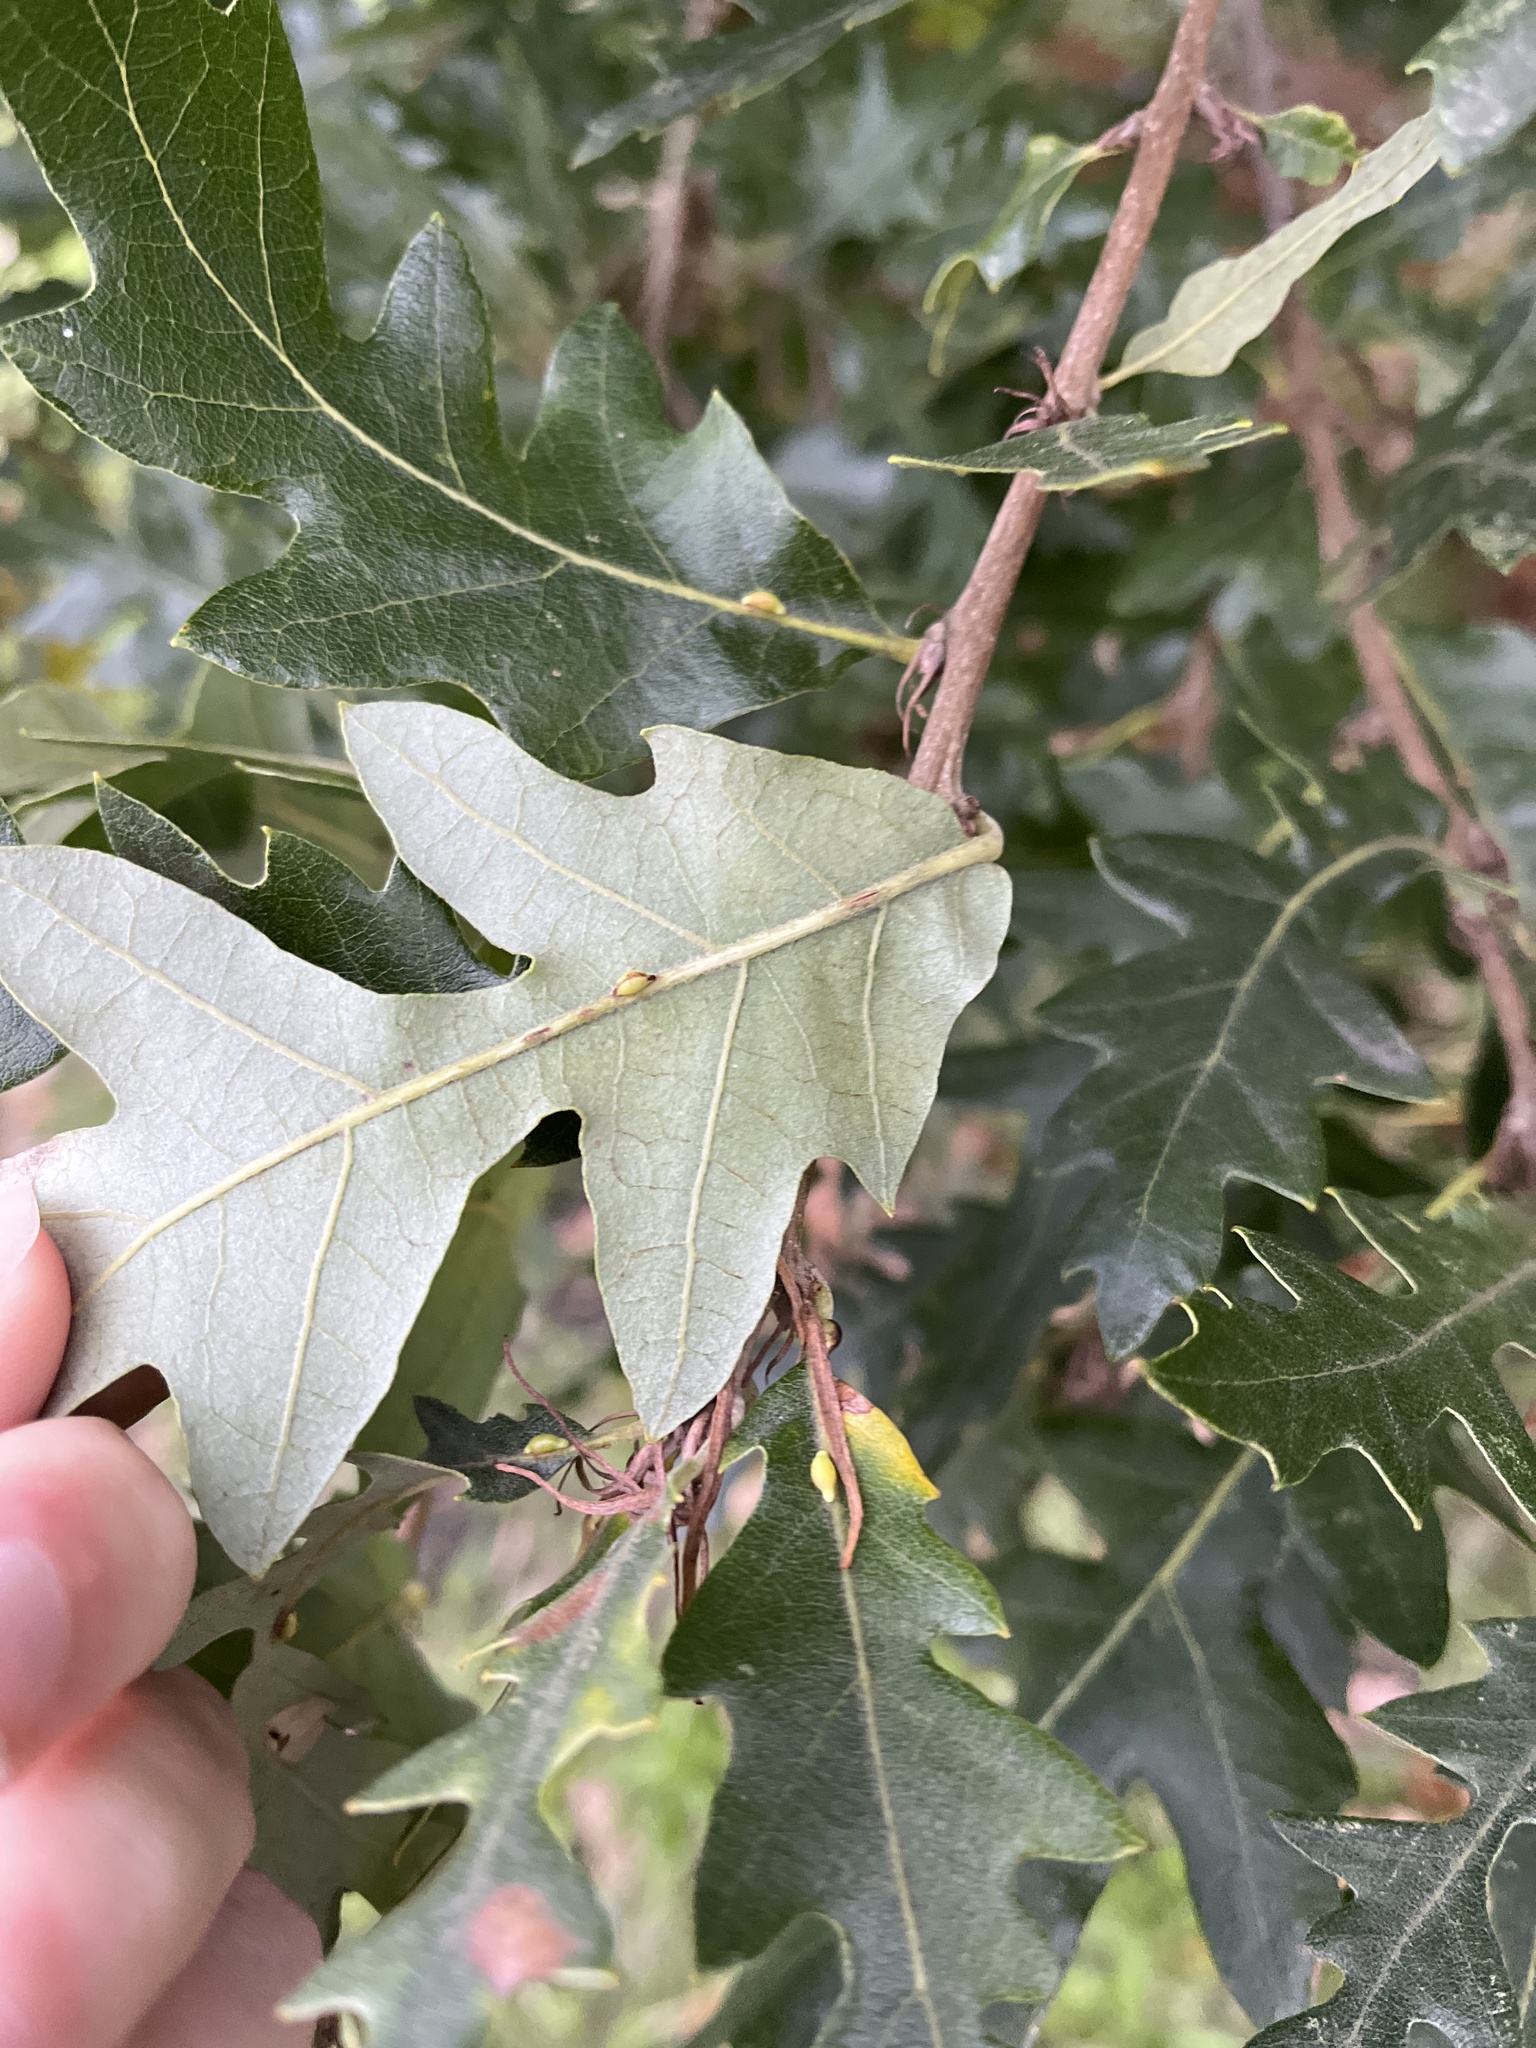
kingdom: Animalia
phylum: Arthropoda
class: Insecta
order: Hymenoptera
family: Cynipidae
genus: Neuroterus
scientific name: Neuroterus saliens
